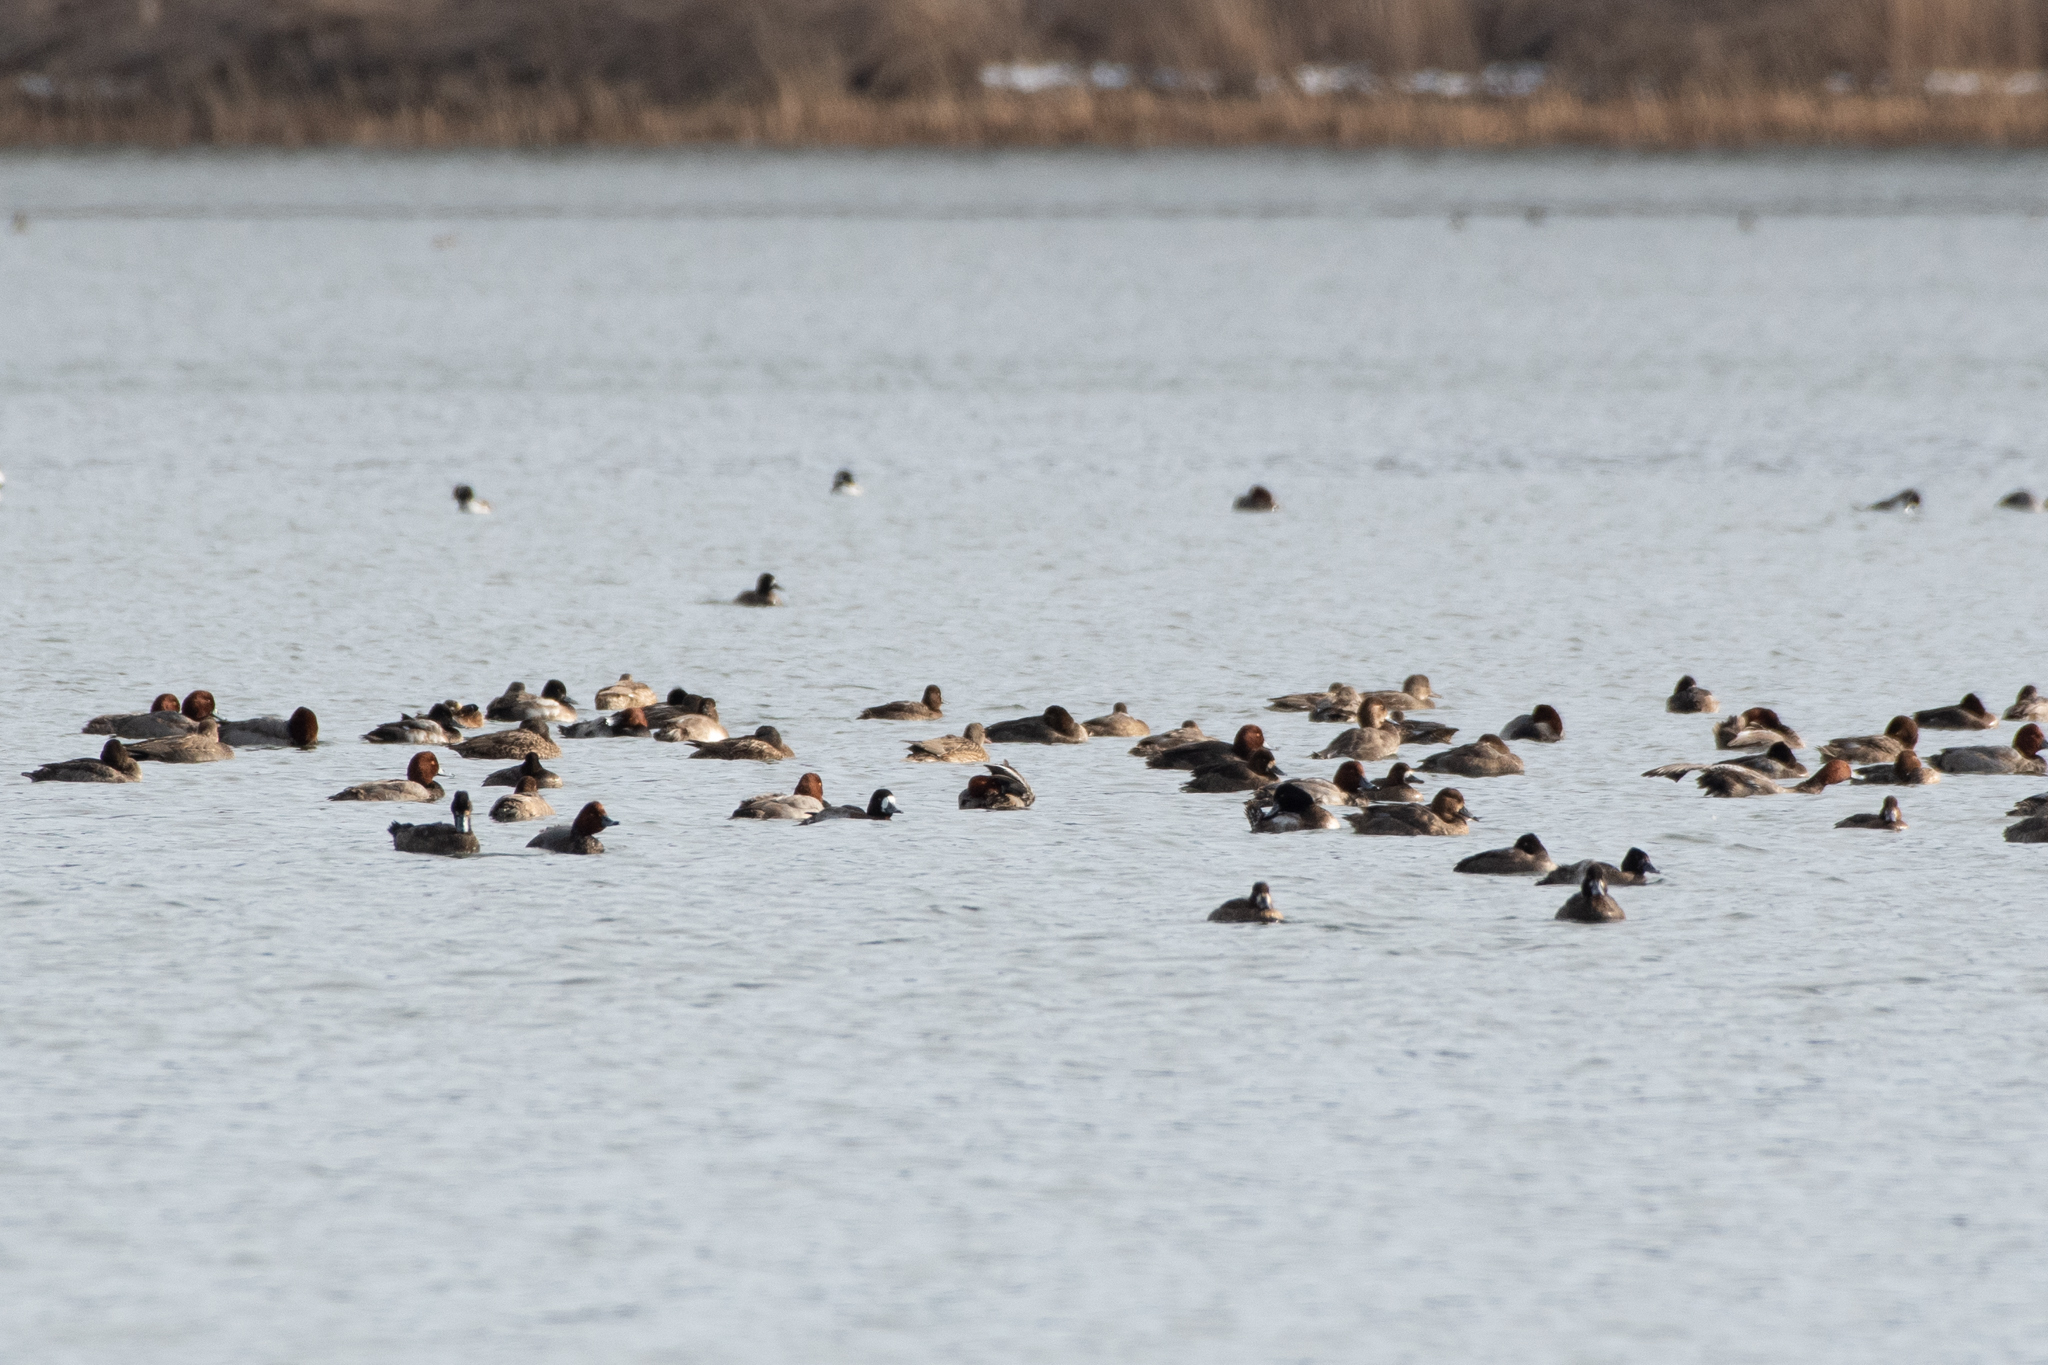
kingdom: Animalia
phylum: Chordata
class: Aves
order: Anseriformes
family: Anatidae
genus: Aythya
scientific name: Aythya affinis
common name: Lesser scaup
